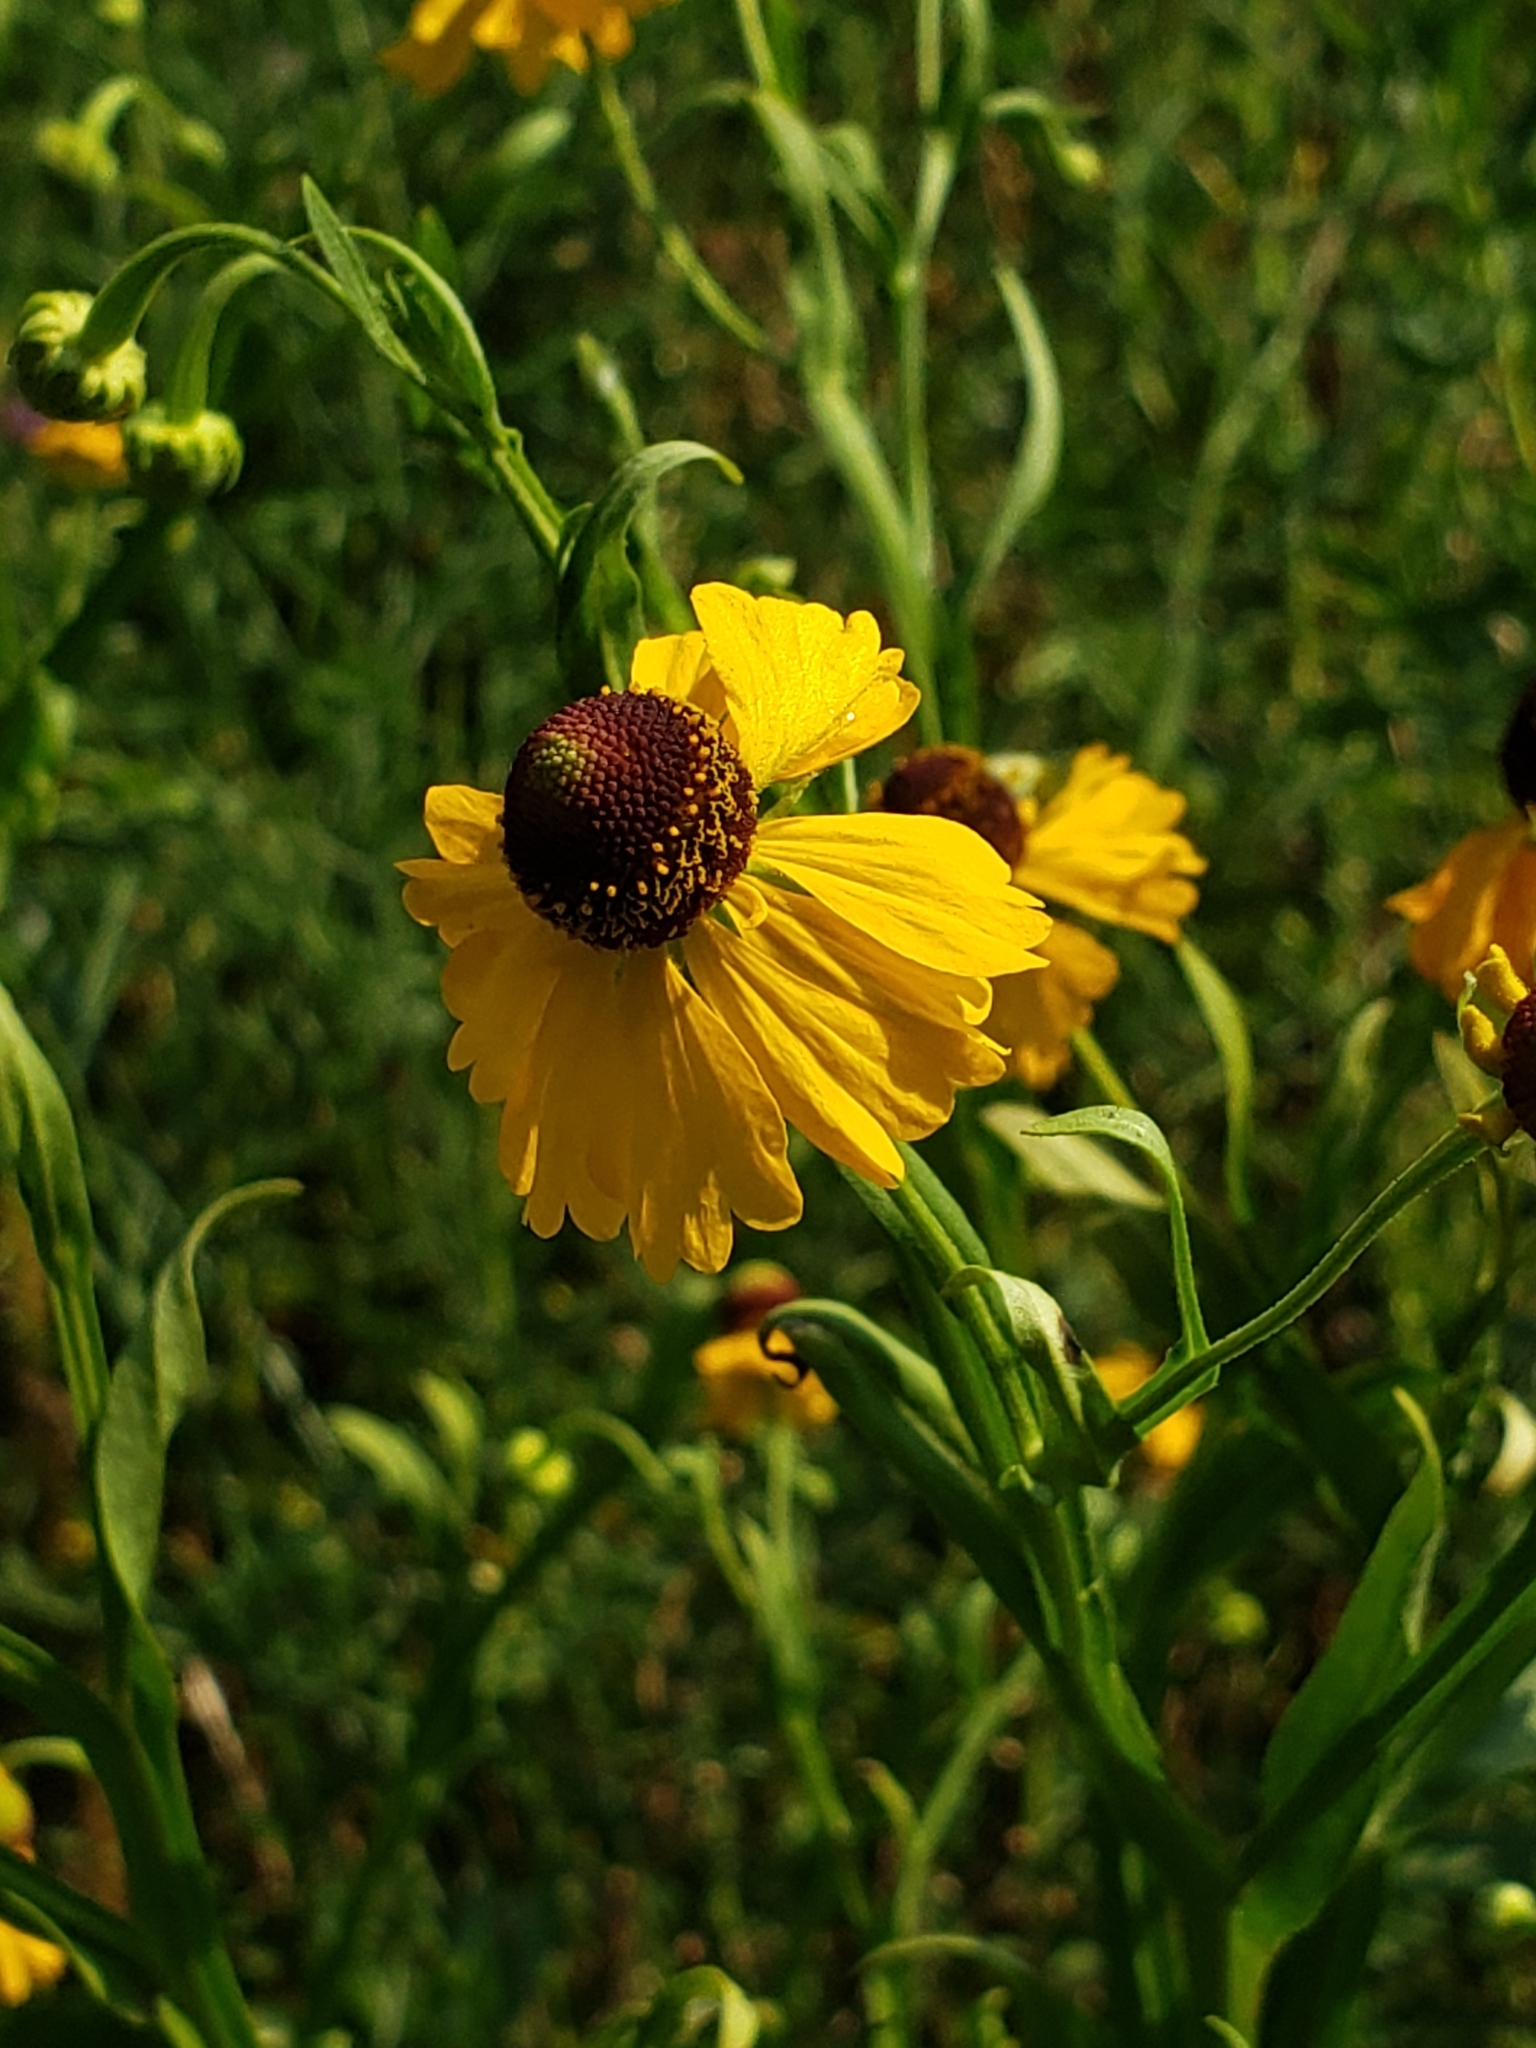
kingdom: Plantae
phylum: Tracheophyta
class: Magnoliopsida
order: Asterales
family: Asteraceae
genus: Helenium
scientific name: Helenium flexuosum
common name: Naked-flowered sneezeweed
